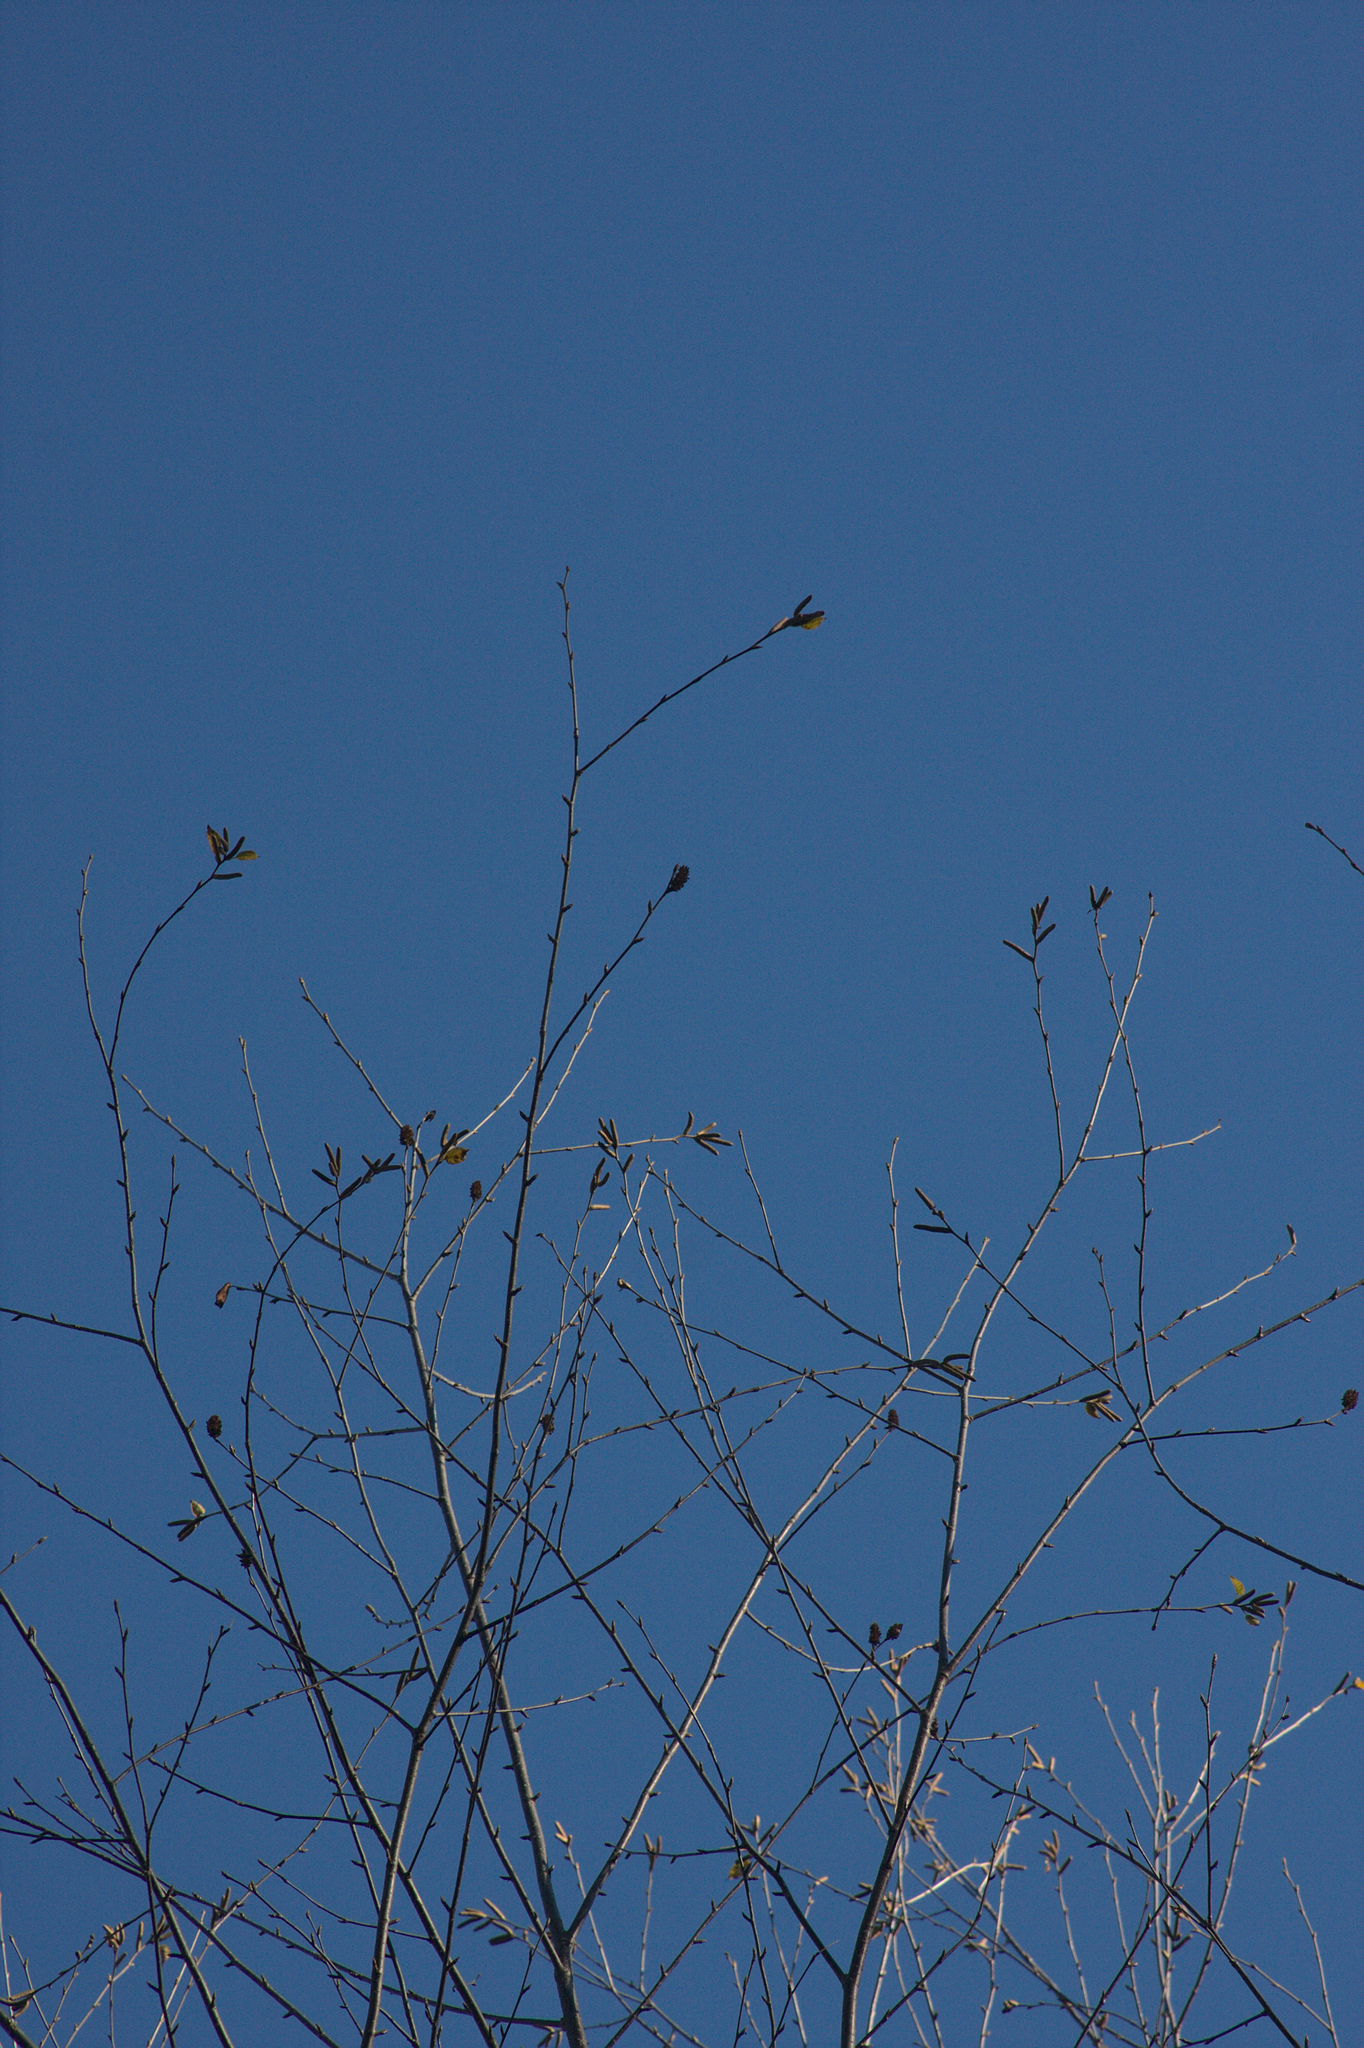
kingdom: Plantae
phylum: Tracheophyta
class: Magnoliopsida
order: Fagales
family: Betulaceae
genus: Betula
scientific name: Betula alleghaniensis
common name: Yellow birch
